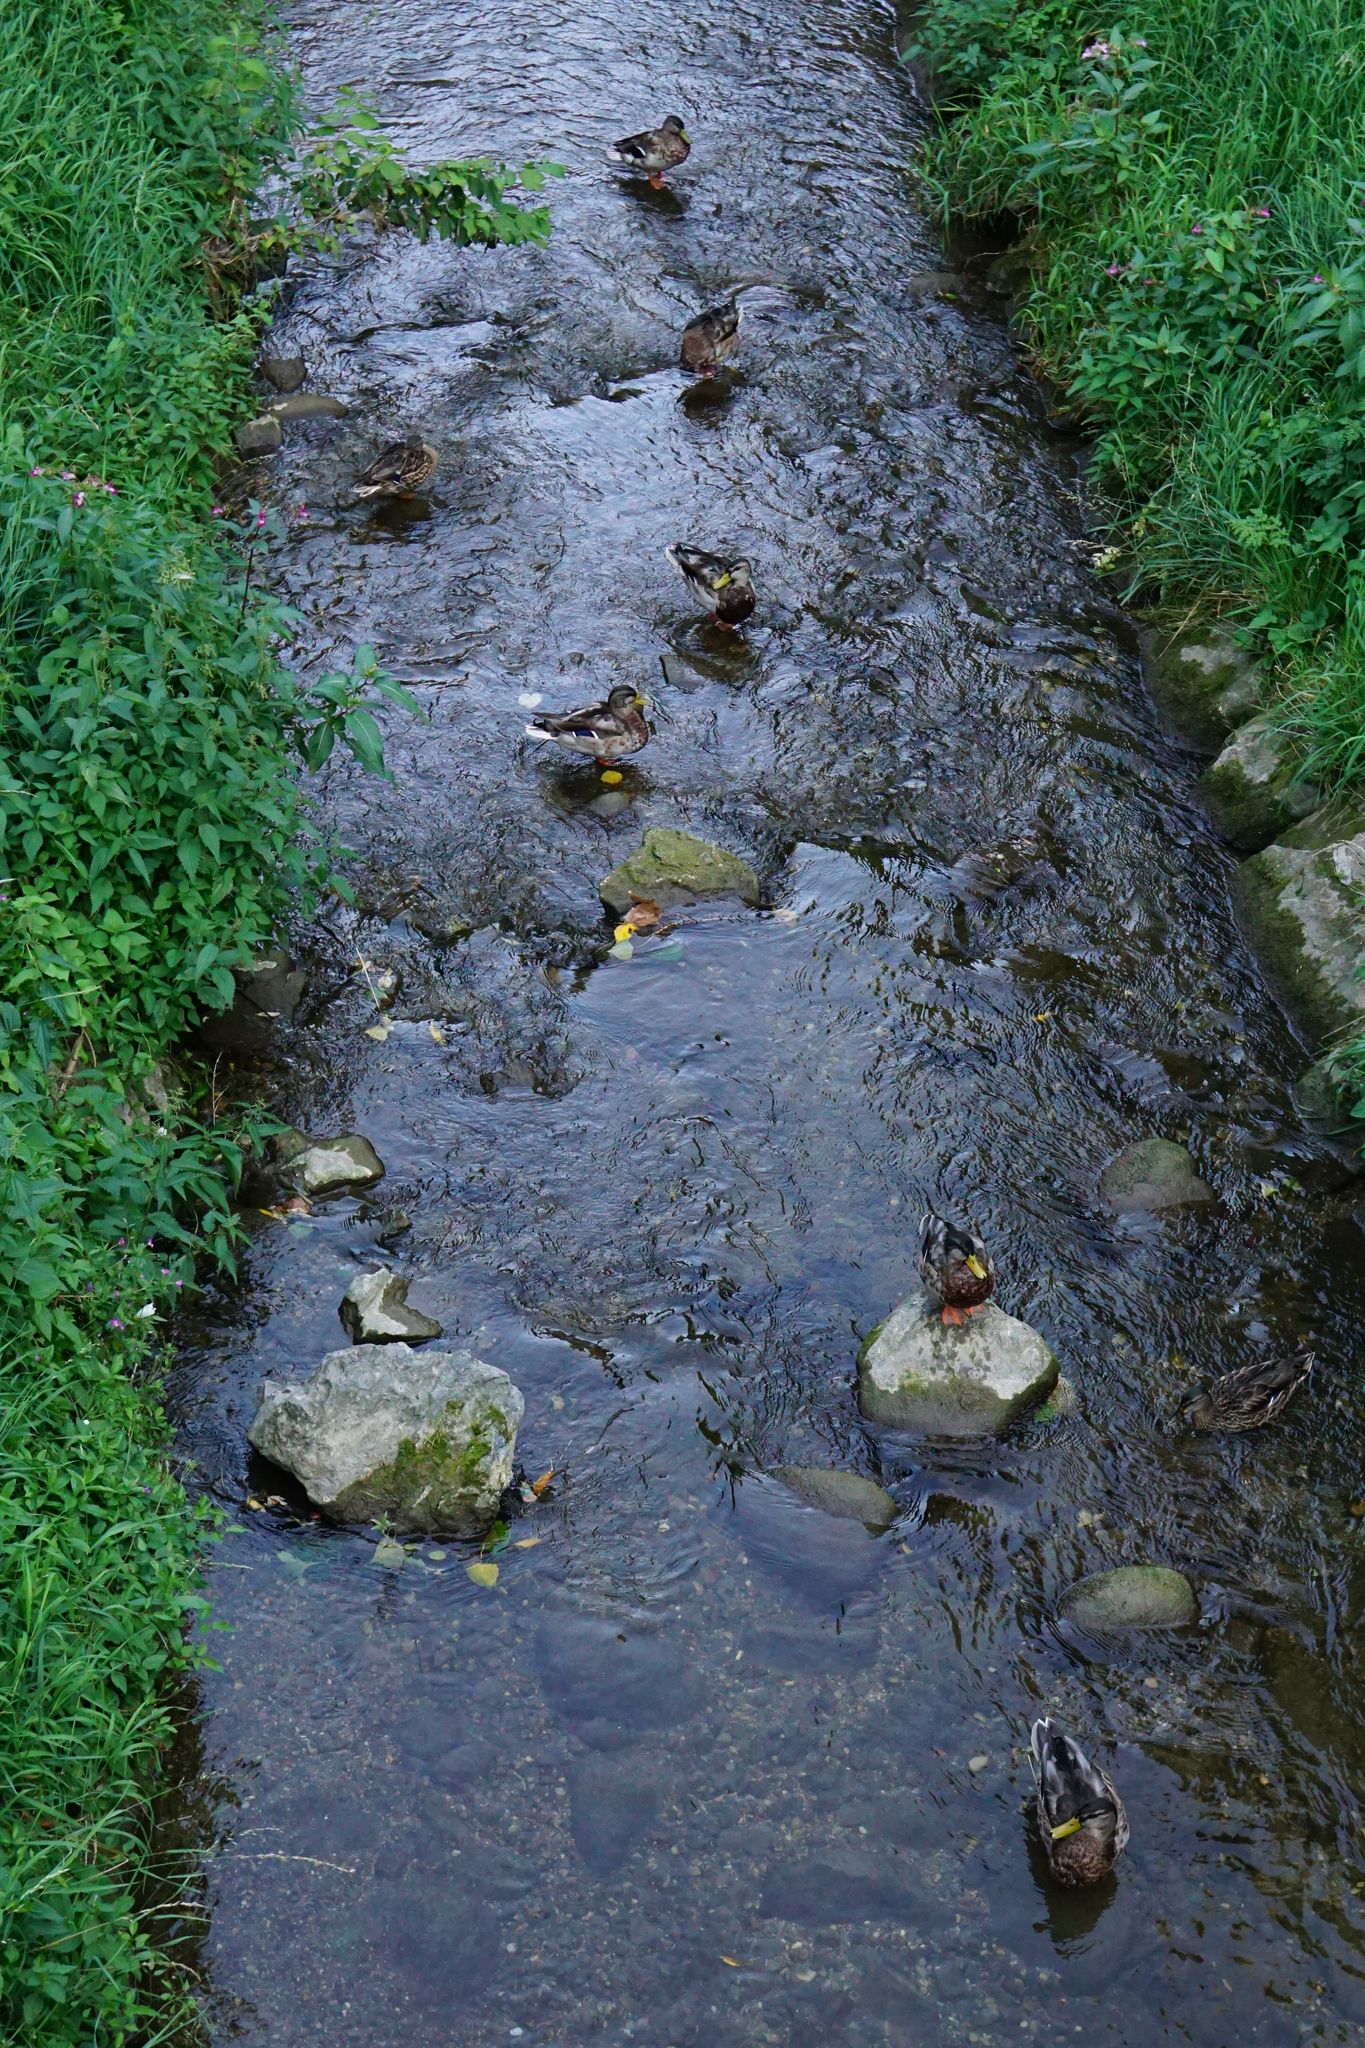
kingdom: Animalia
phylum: Chordata
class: Aves
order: Anseriformes
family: Anatidae
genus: Anas
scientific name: Anas platyrhynchos
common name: Mallard
